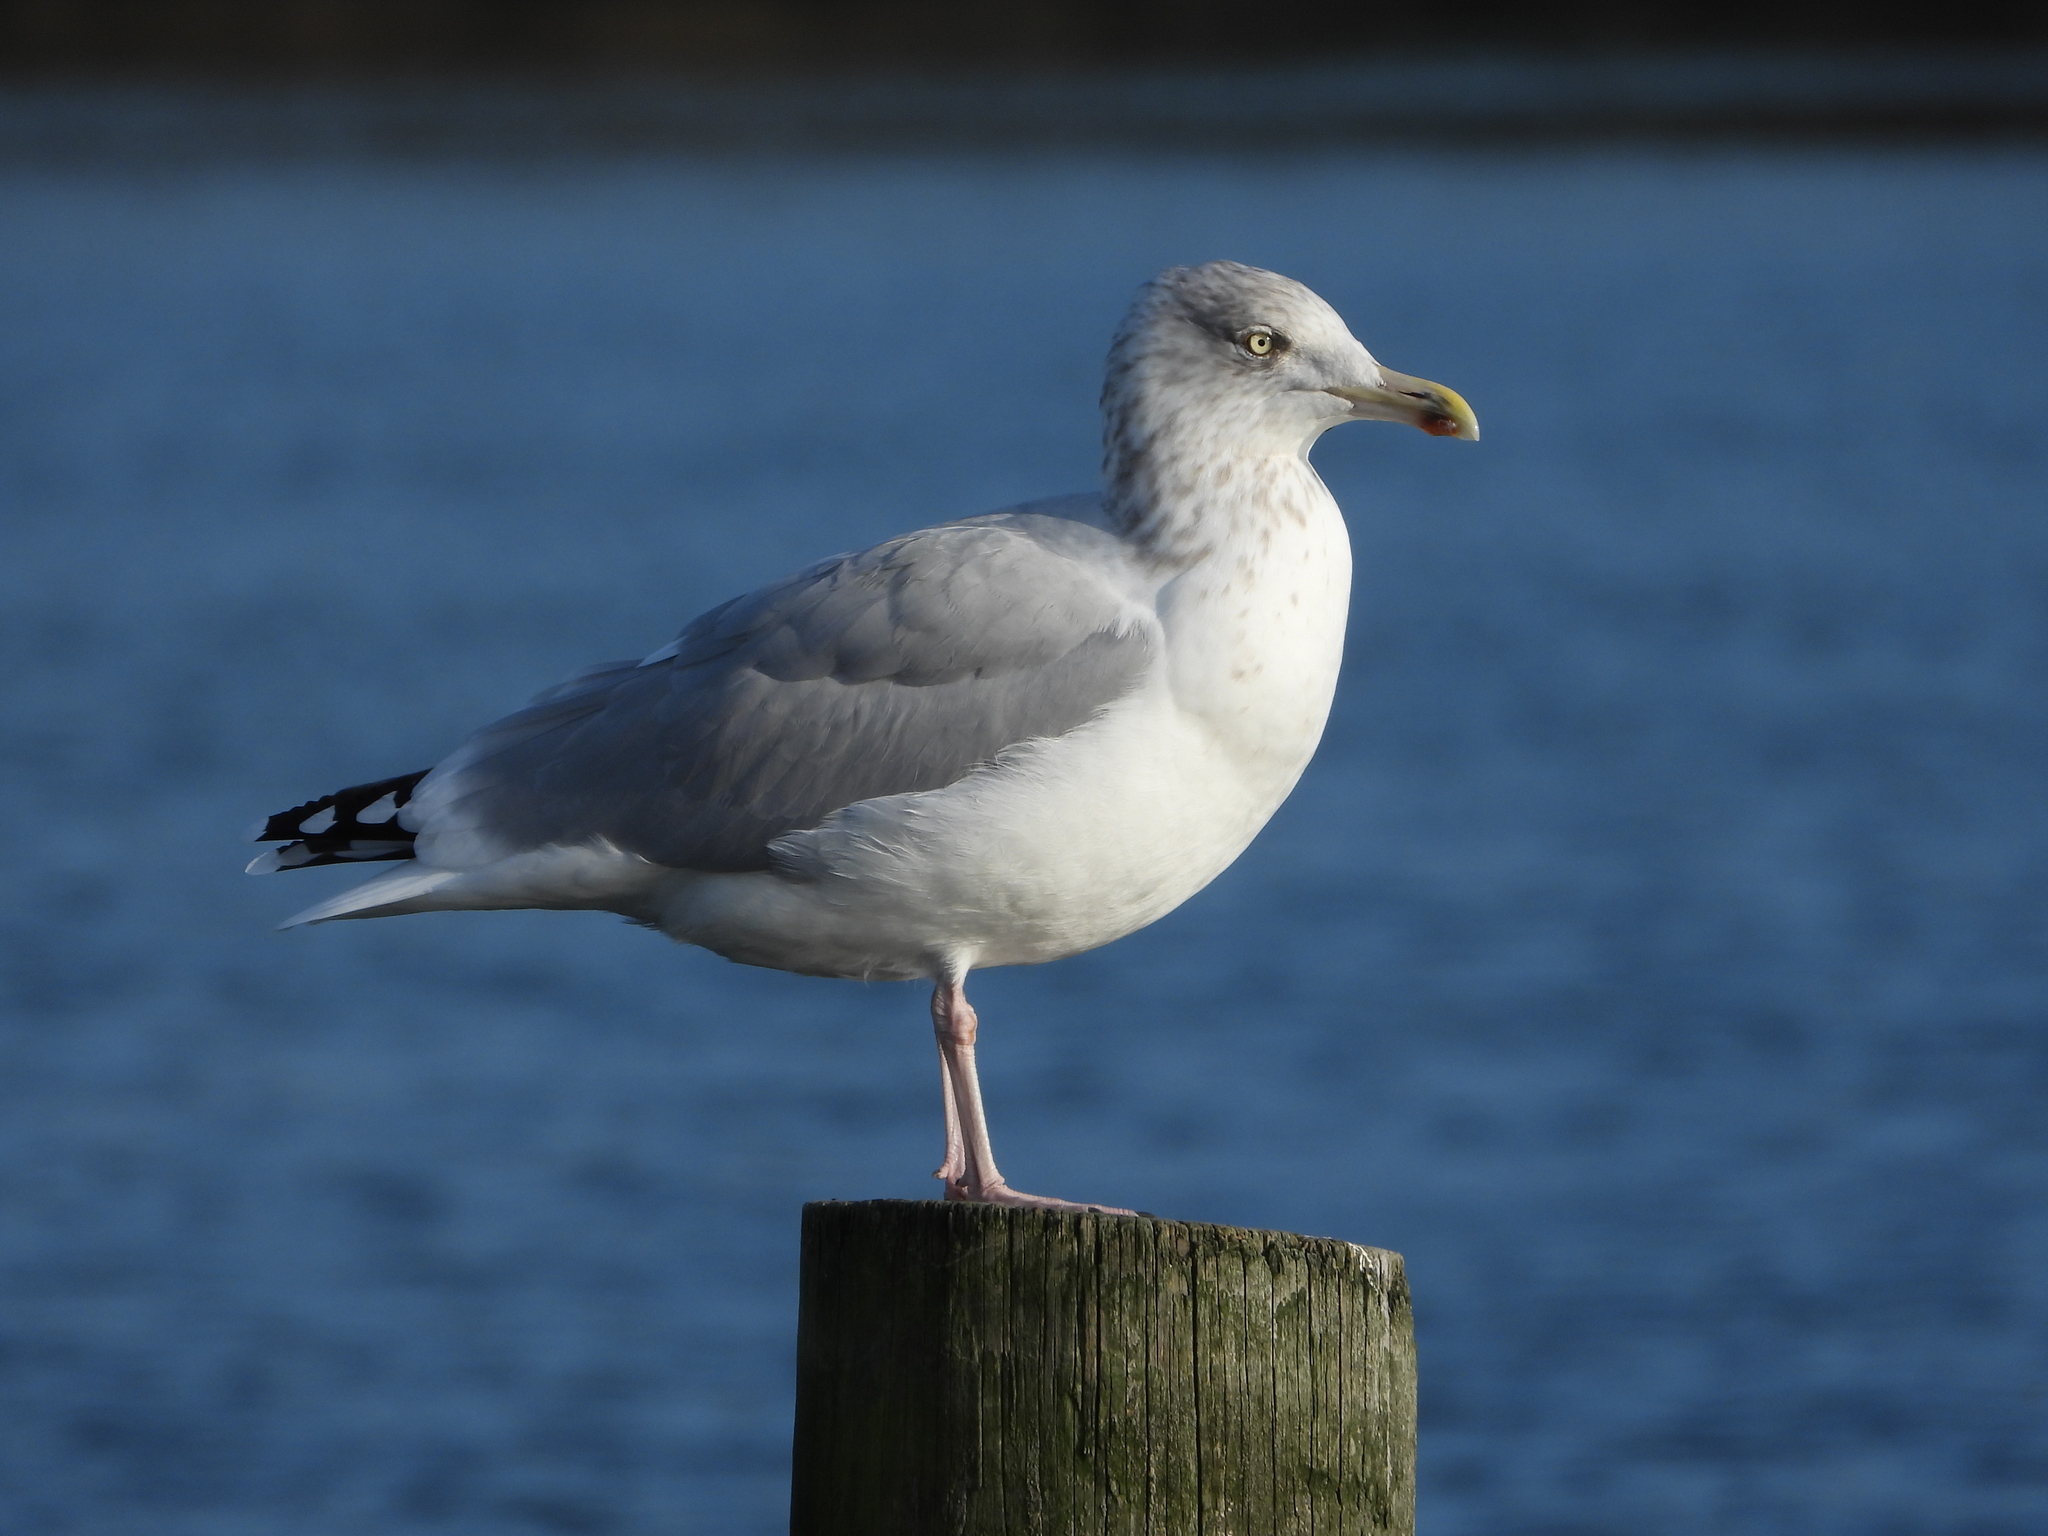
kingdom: Animalia
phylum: Chordata
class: Aves
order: Charadriiformes
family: Laridae
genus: Larus
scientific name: Larus argentatus
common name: Herring gull
